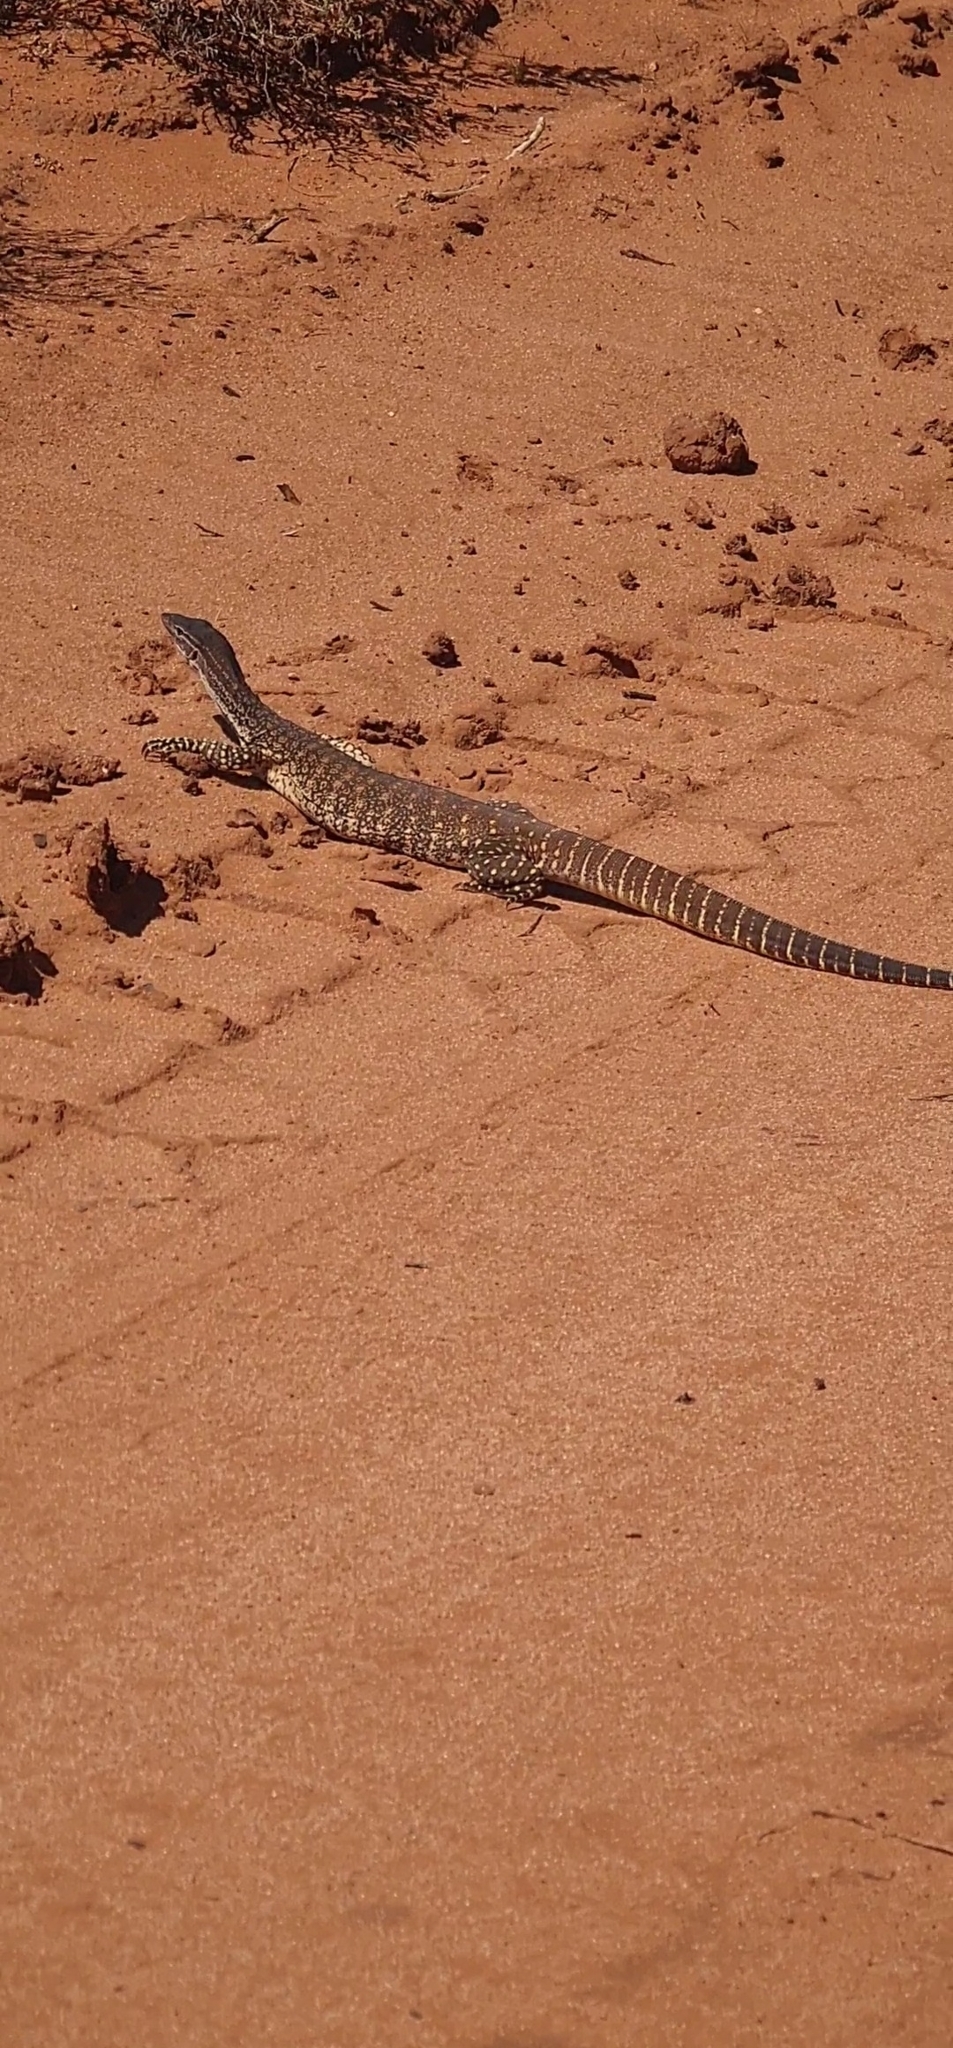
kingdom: Animalia
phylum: Chordata
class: Squamata
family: Varanidae
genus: Varanus
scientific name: Varanus gouldii
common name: Gould's goanna
